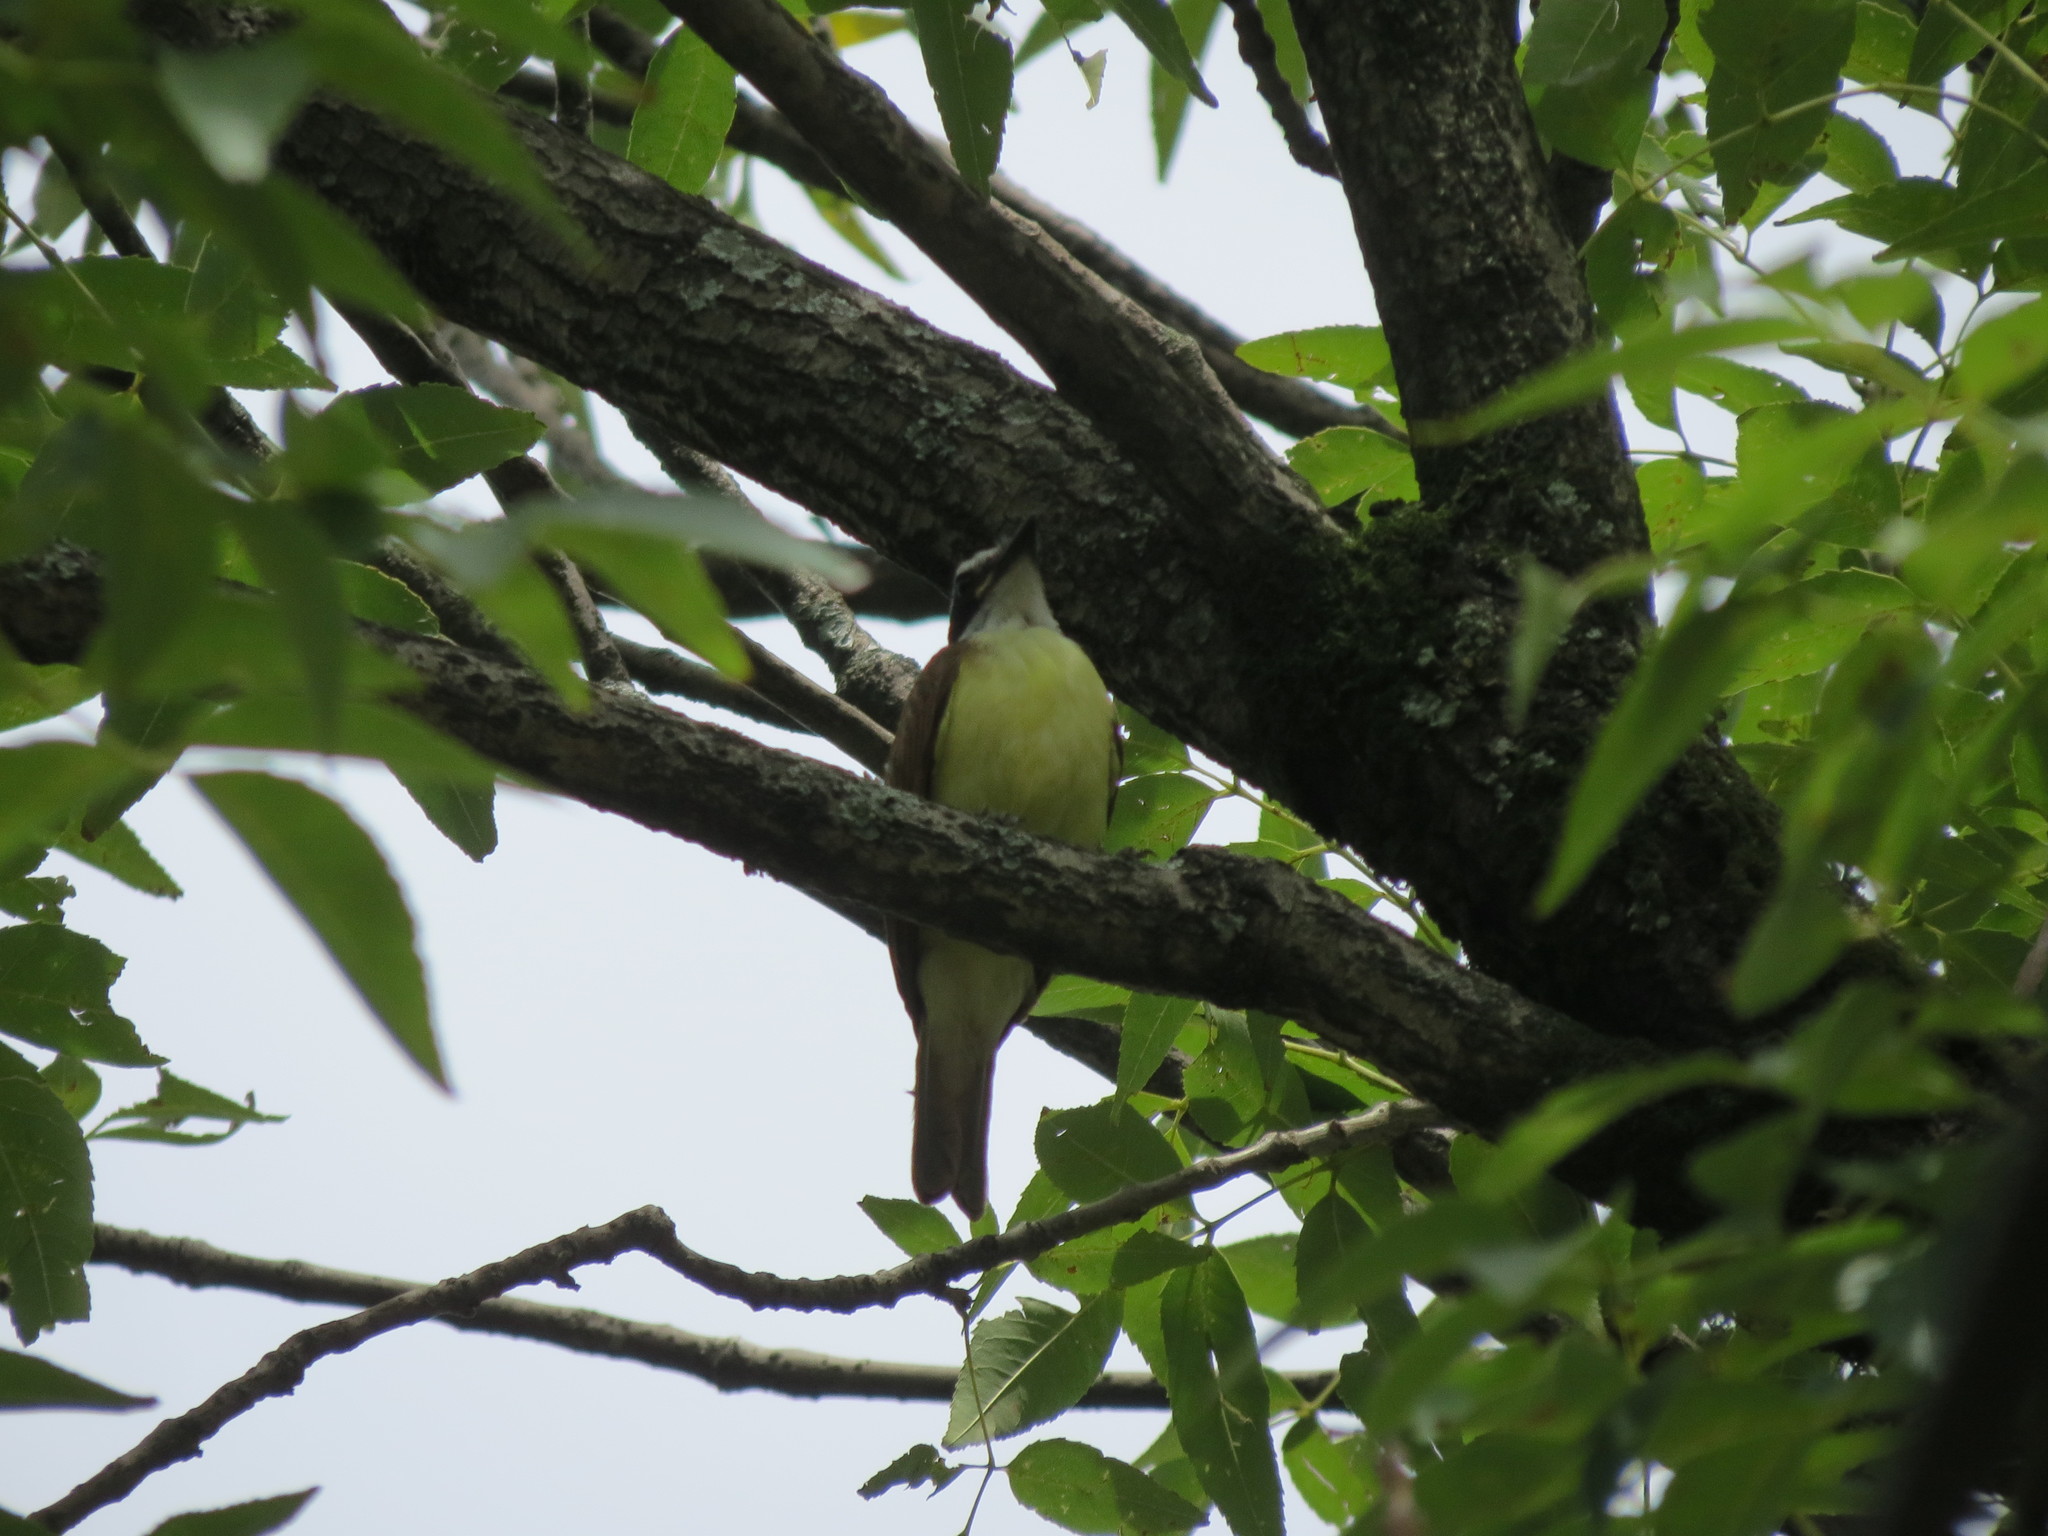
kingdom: Animalia
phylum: Chordata
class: Aves
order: Passeriformes
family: Tyrannidae
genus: Pitangus
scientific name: Pitangus sulphuratus
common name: Great kiskadee
